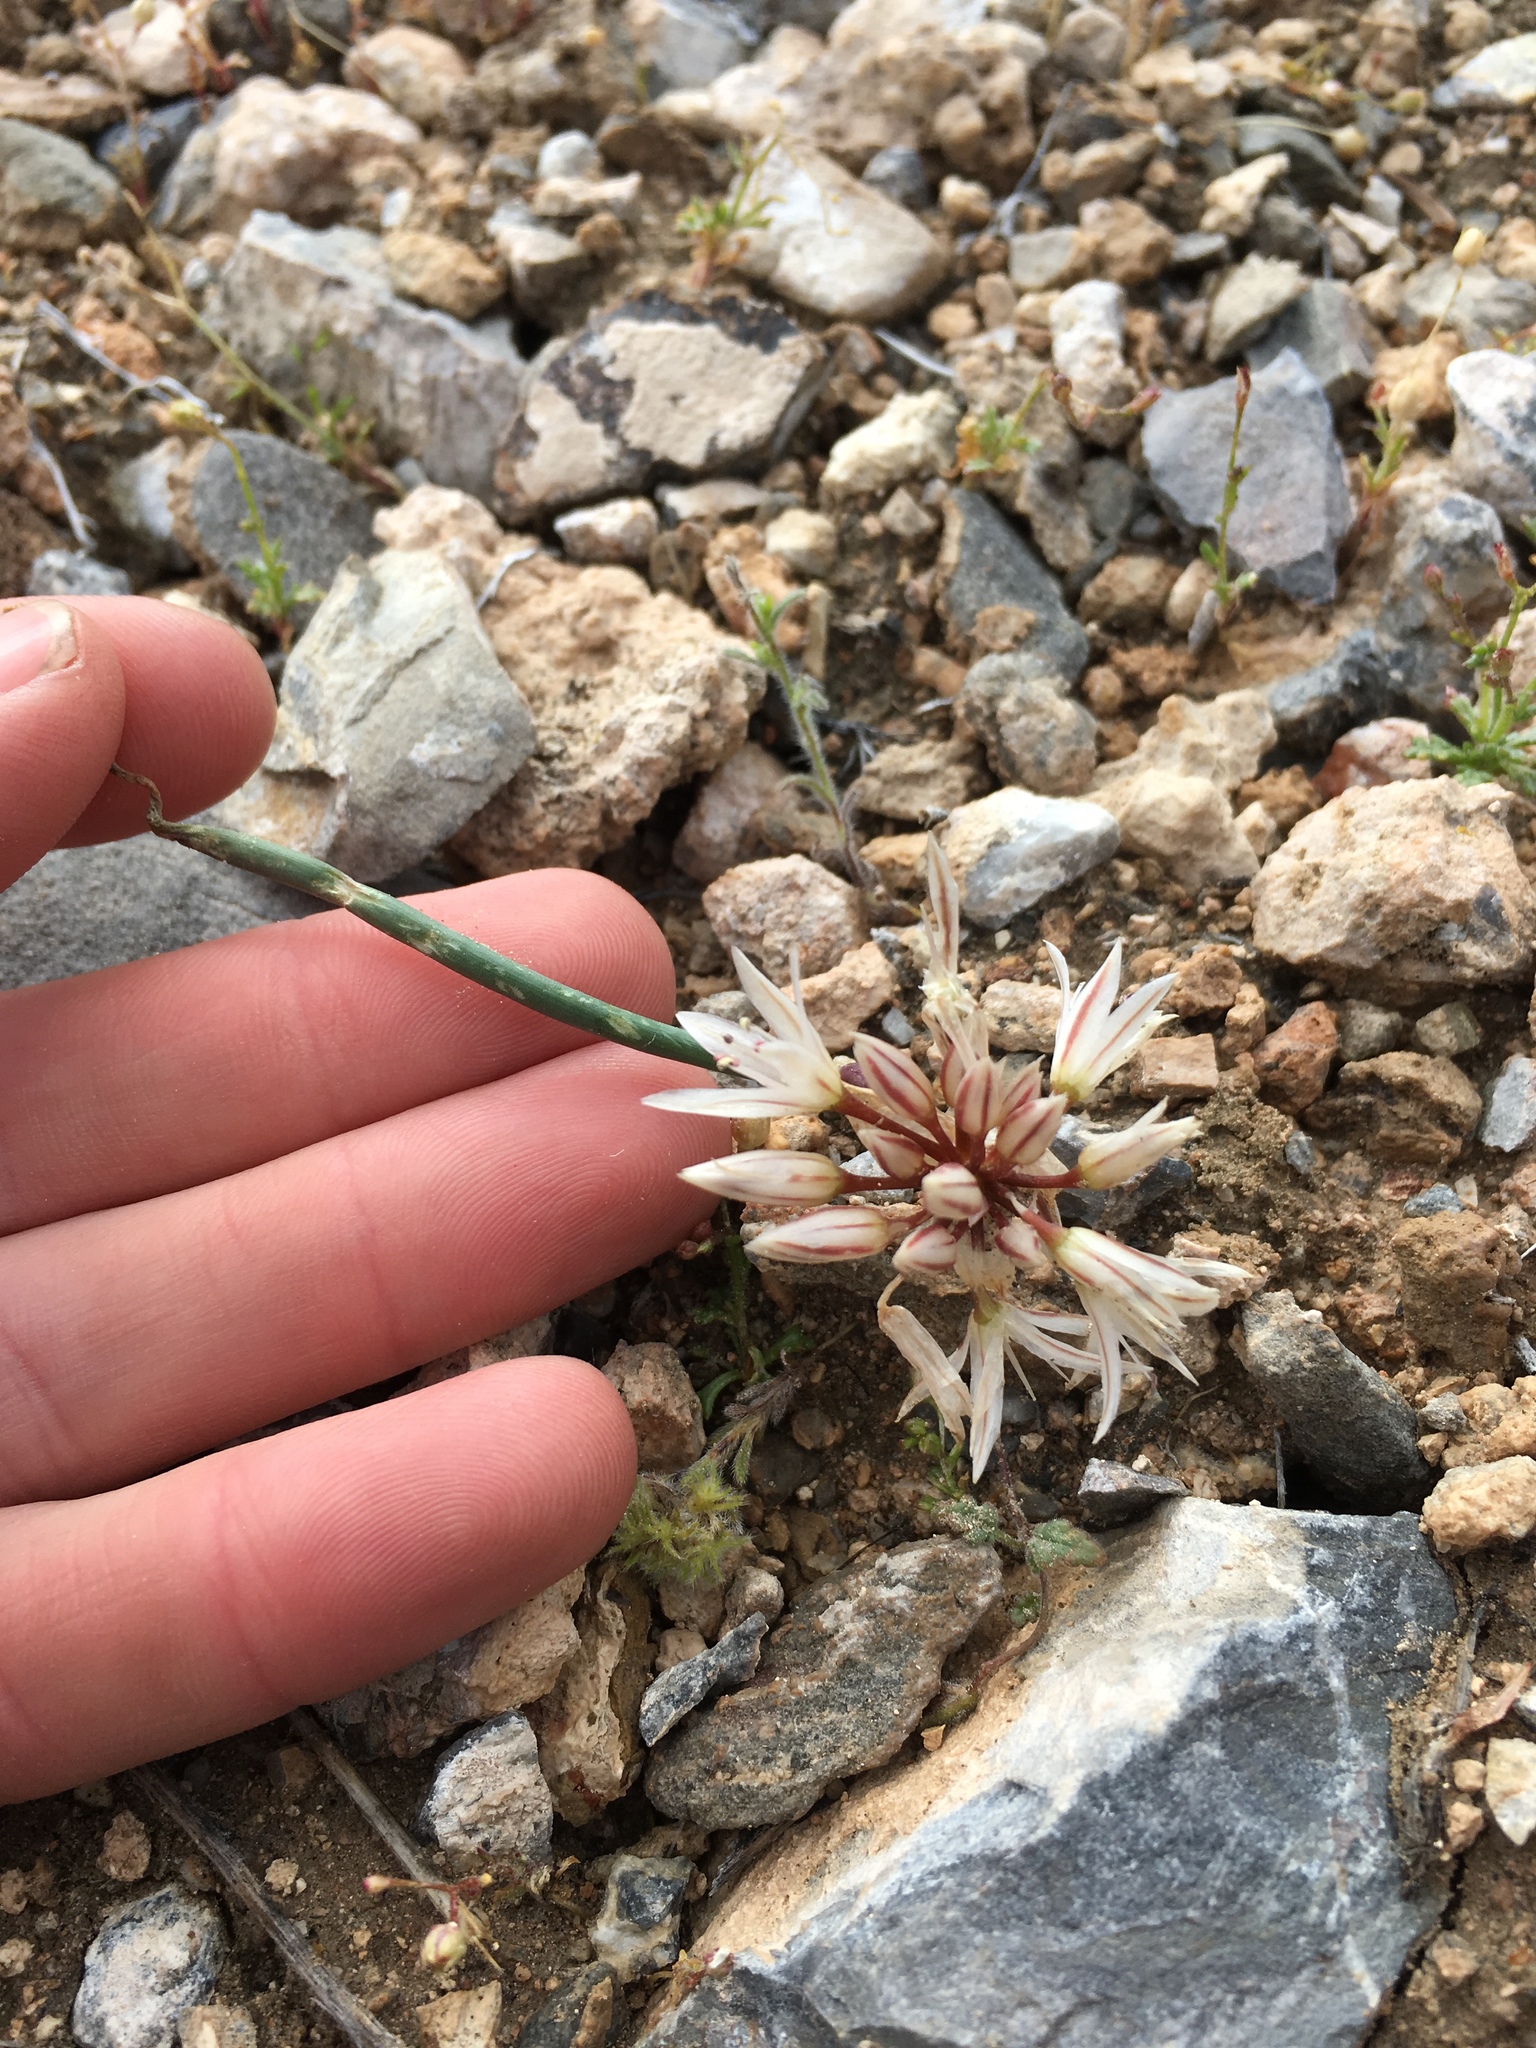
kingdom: Plantae
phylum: Tracheophyta
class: Liliopsida
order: Asparagales
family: Amaryllidaceae
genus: Allium
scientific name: Allium atrorubens
